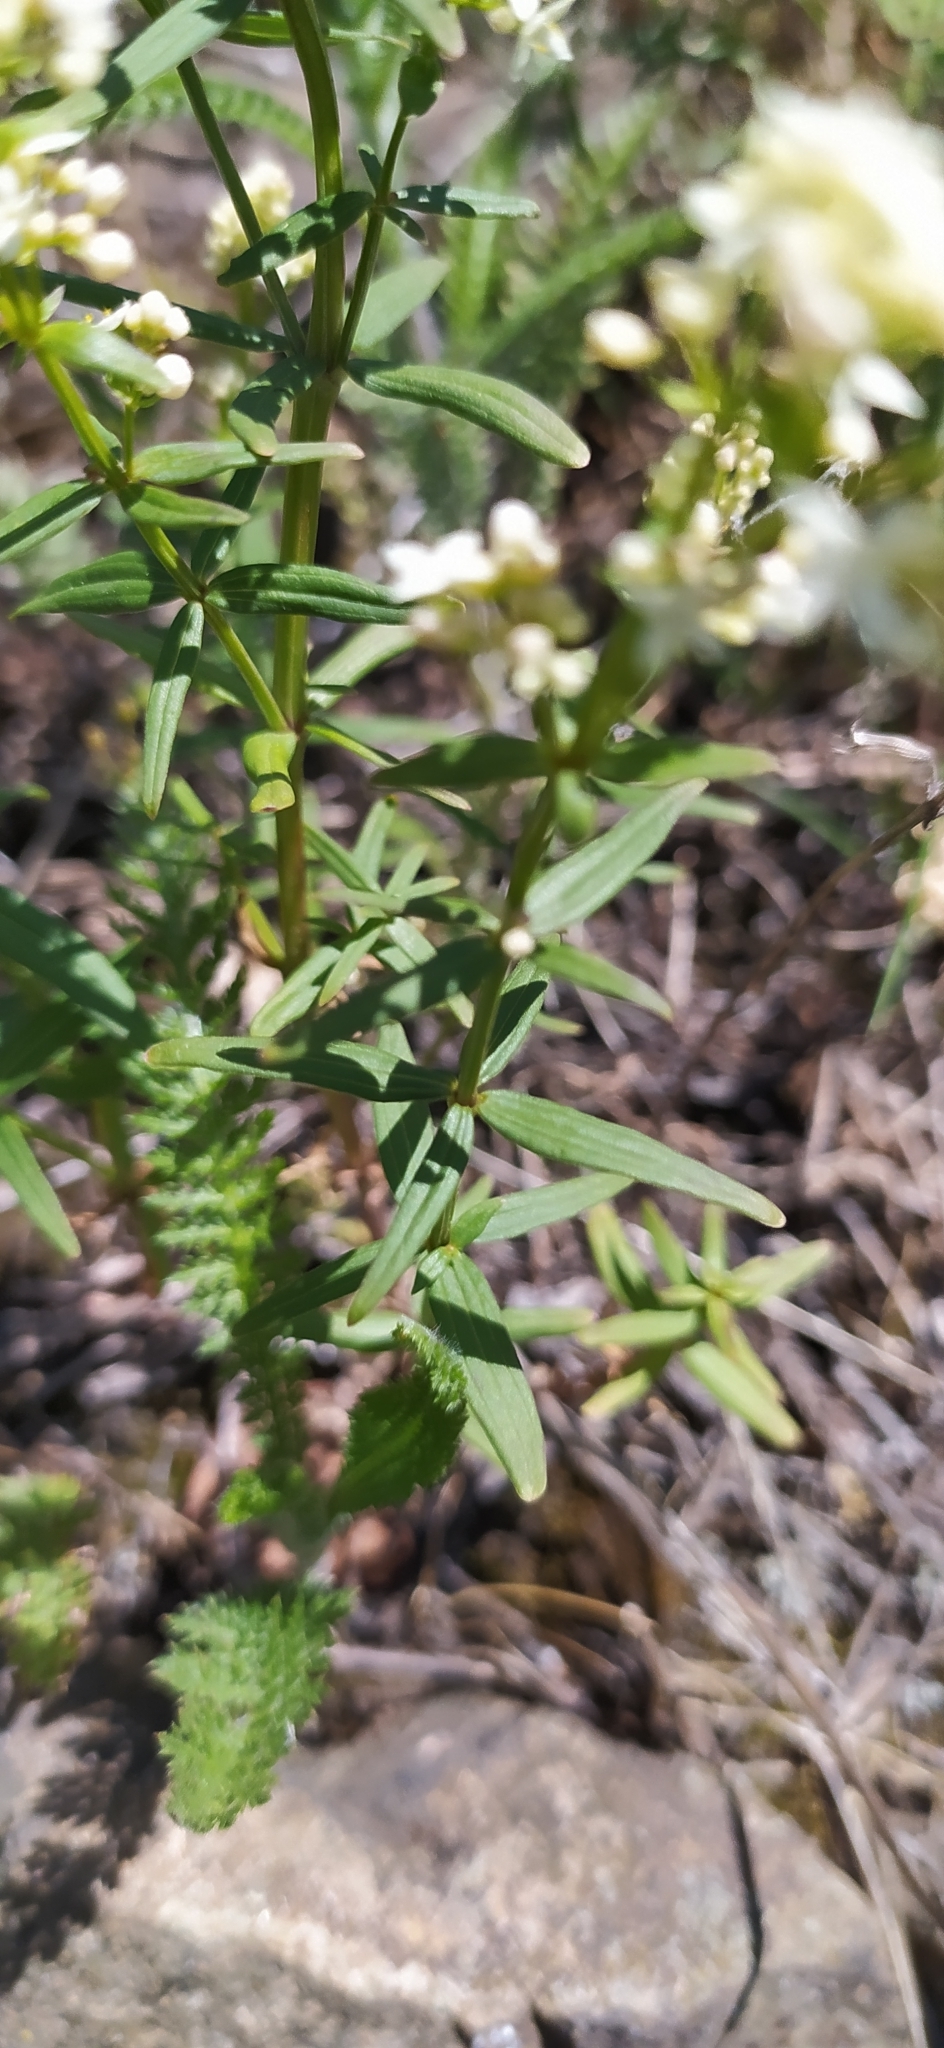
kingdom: Plantae
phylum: Tracheophyta
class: Magnoliopsida
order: Gentianales
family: Rubiaceae
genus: Galium
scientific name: Galium boreale
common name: Northern bedstraw
